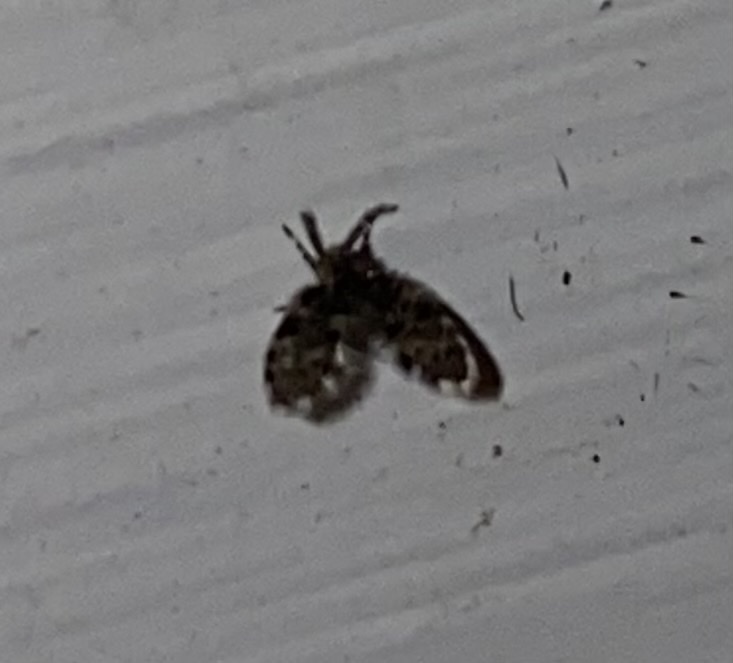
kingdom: Animalia
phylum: Arthropoda
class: Insecta
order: Diptera
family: Psychodidae
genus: Clogmia
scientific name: Clogmia albipunctatus
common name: White-spotted moth fly
